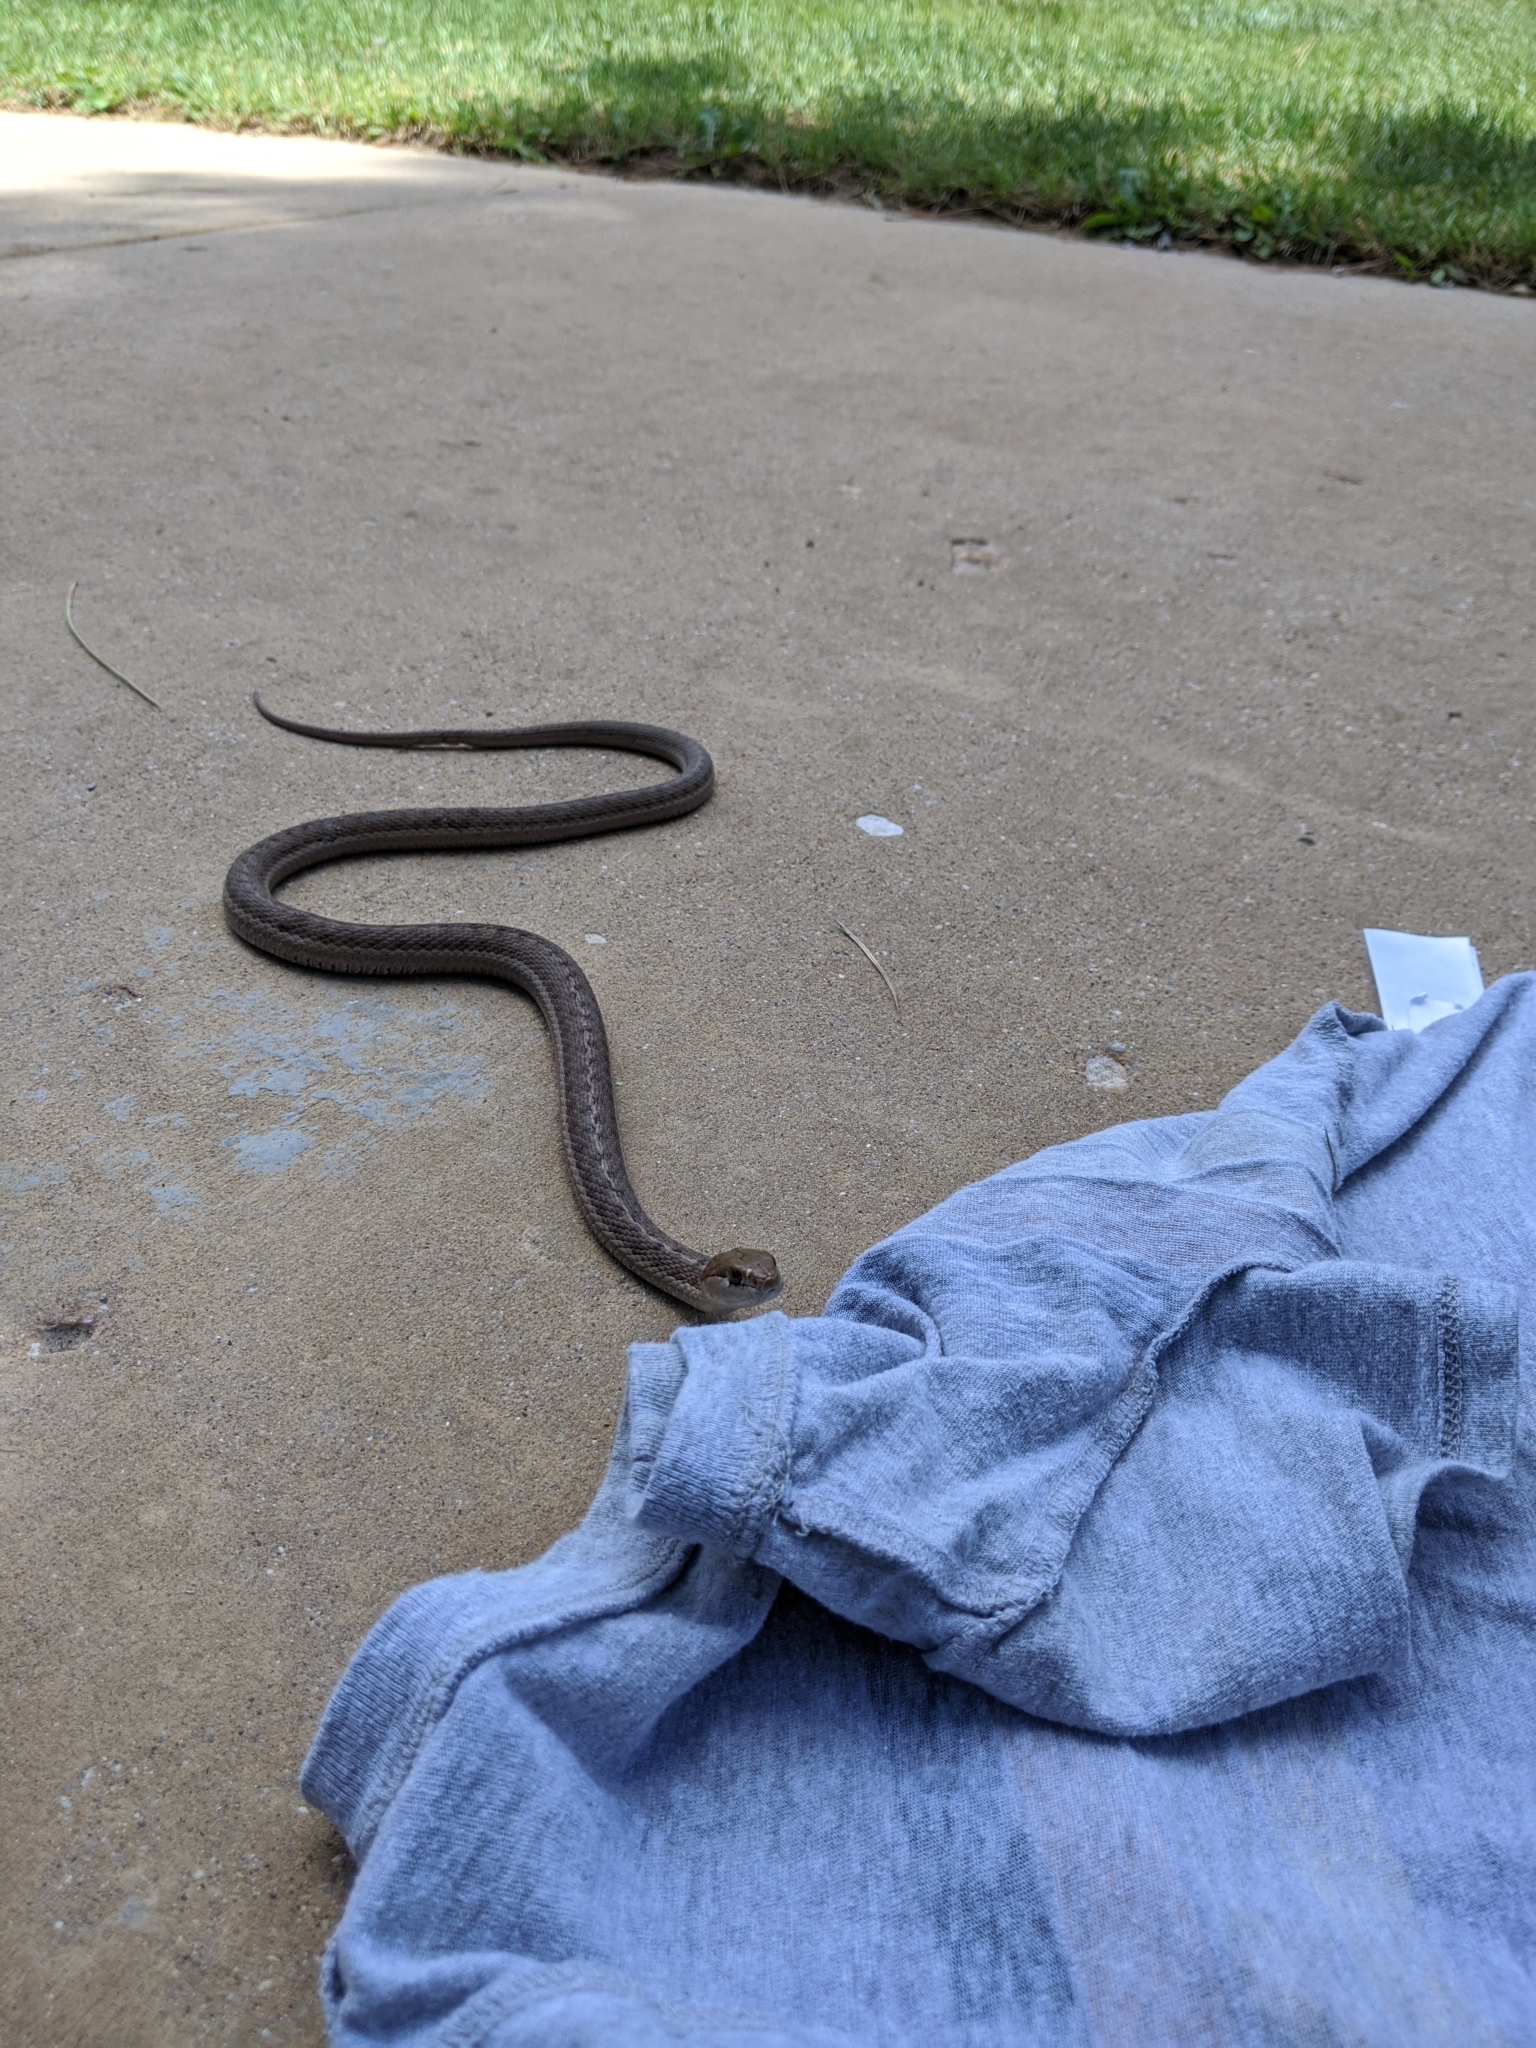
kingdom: Animalia
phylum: Chordata
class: Squamata
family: Colubridae
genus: Thamnophis
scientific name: Thamnophis elegans
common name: Western terrestrial garter snake
